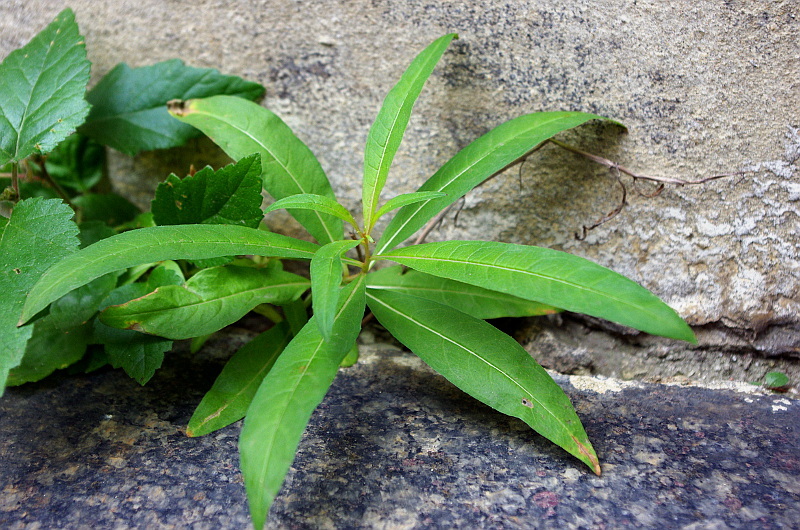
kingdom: Plantae
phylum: Tracheophyta
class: Magnoliopsida
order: Myrtales
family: Onagraceae
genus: Chamaenerion
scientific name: Chamaenerion angustifolium
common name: Fireweed
